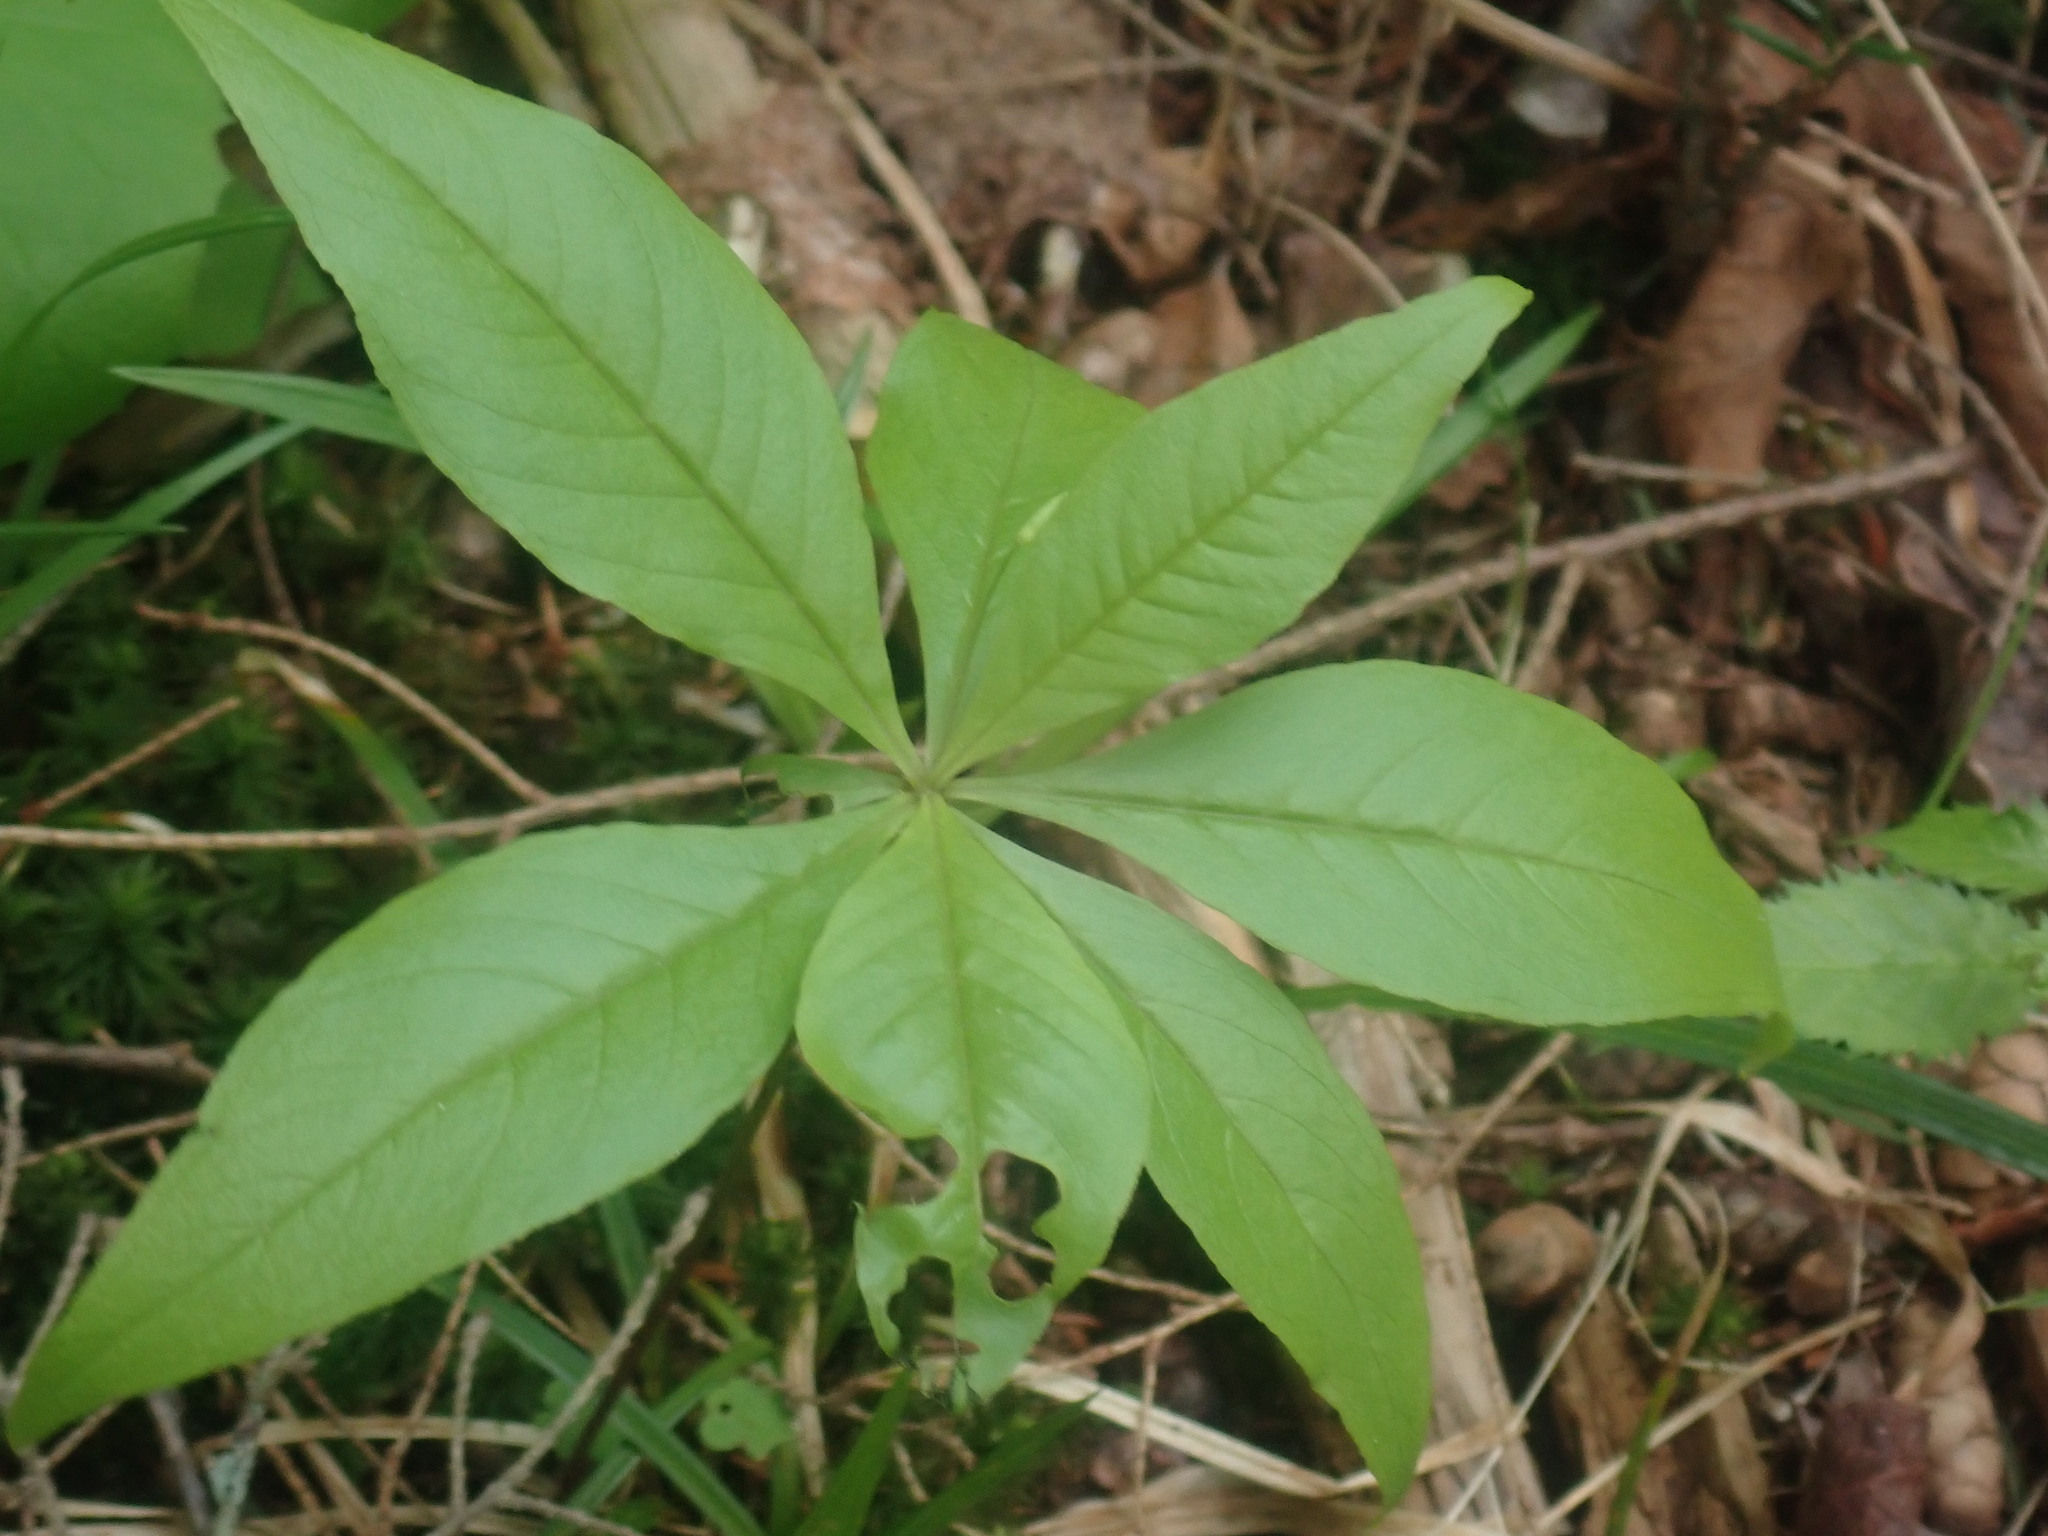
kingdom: Plantae
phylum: Tracheophyta
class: Magnoliopsida
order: Ericales
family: Primulaceae
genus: Lysimachia
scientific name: Lysimachia borealis
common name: American starflower
